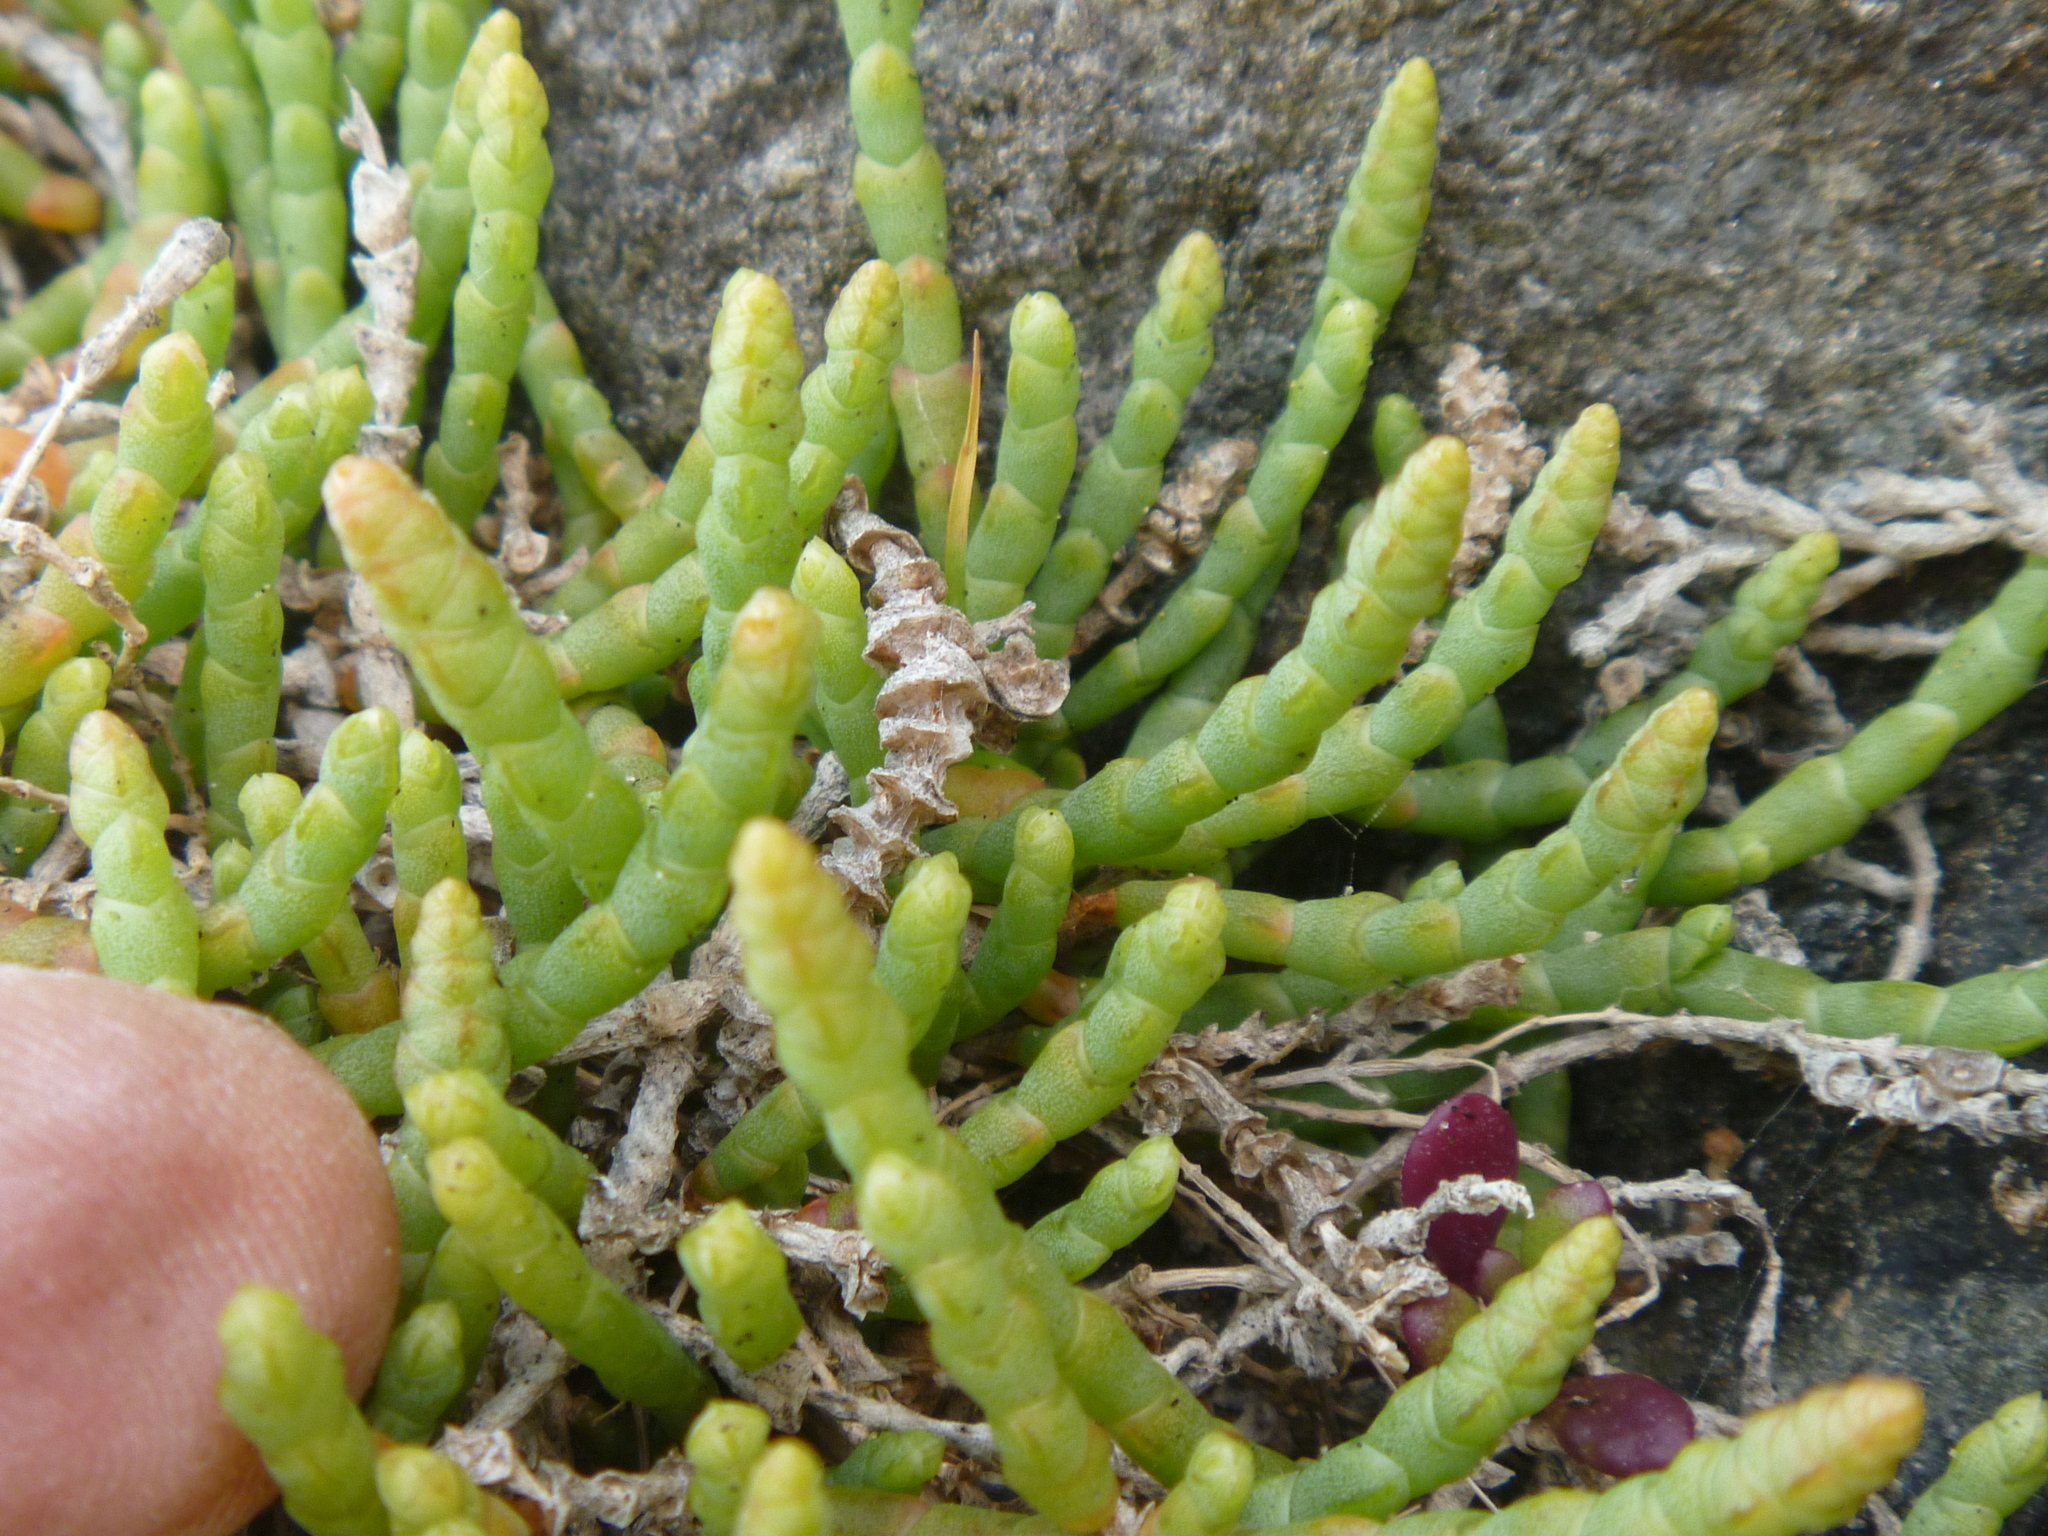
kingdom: Plantae
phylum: Tracheophyta
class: Magnoliopsida
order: Caryophyllales
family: Amaranthaceae
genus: Salicornia
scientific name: Salicornia quinqueflora
